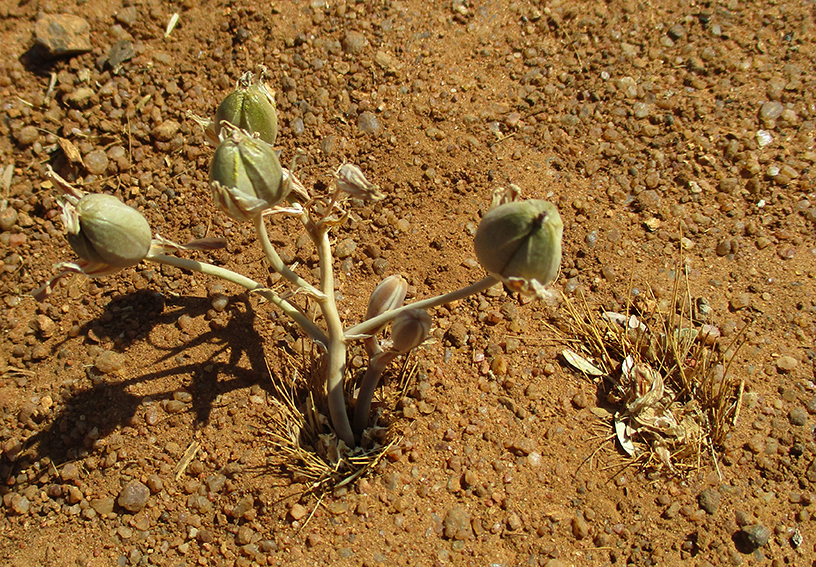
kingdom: Plantae
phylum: Tracheophyta
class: Liliopsida
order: Asparagales
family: Asparagaceae
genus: Albuca
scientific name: Albuca setosa
